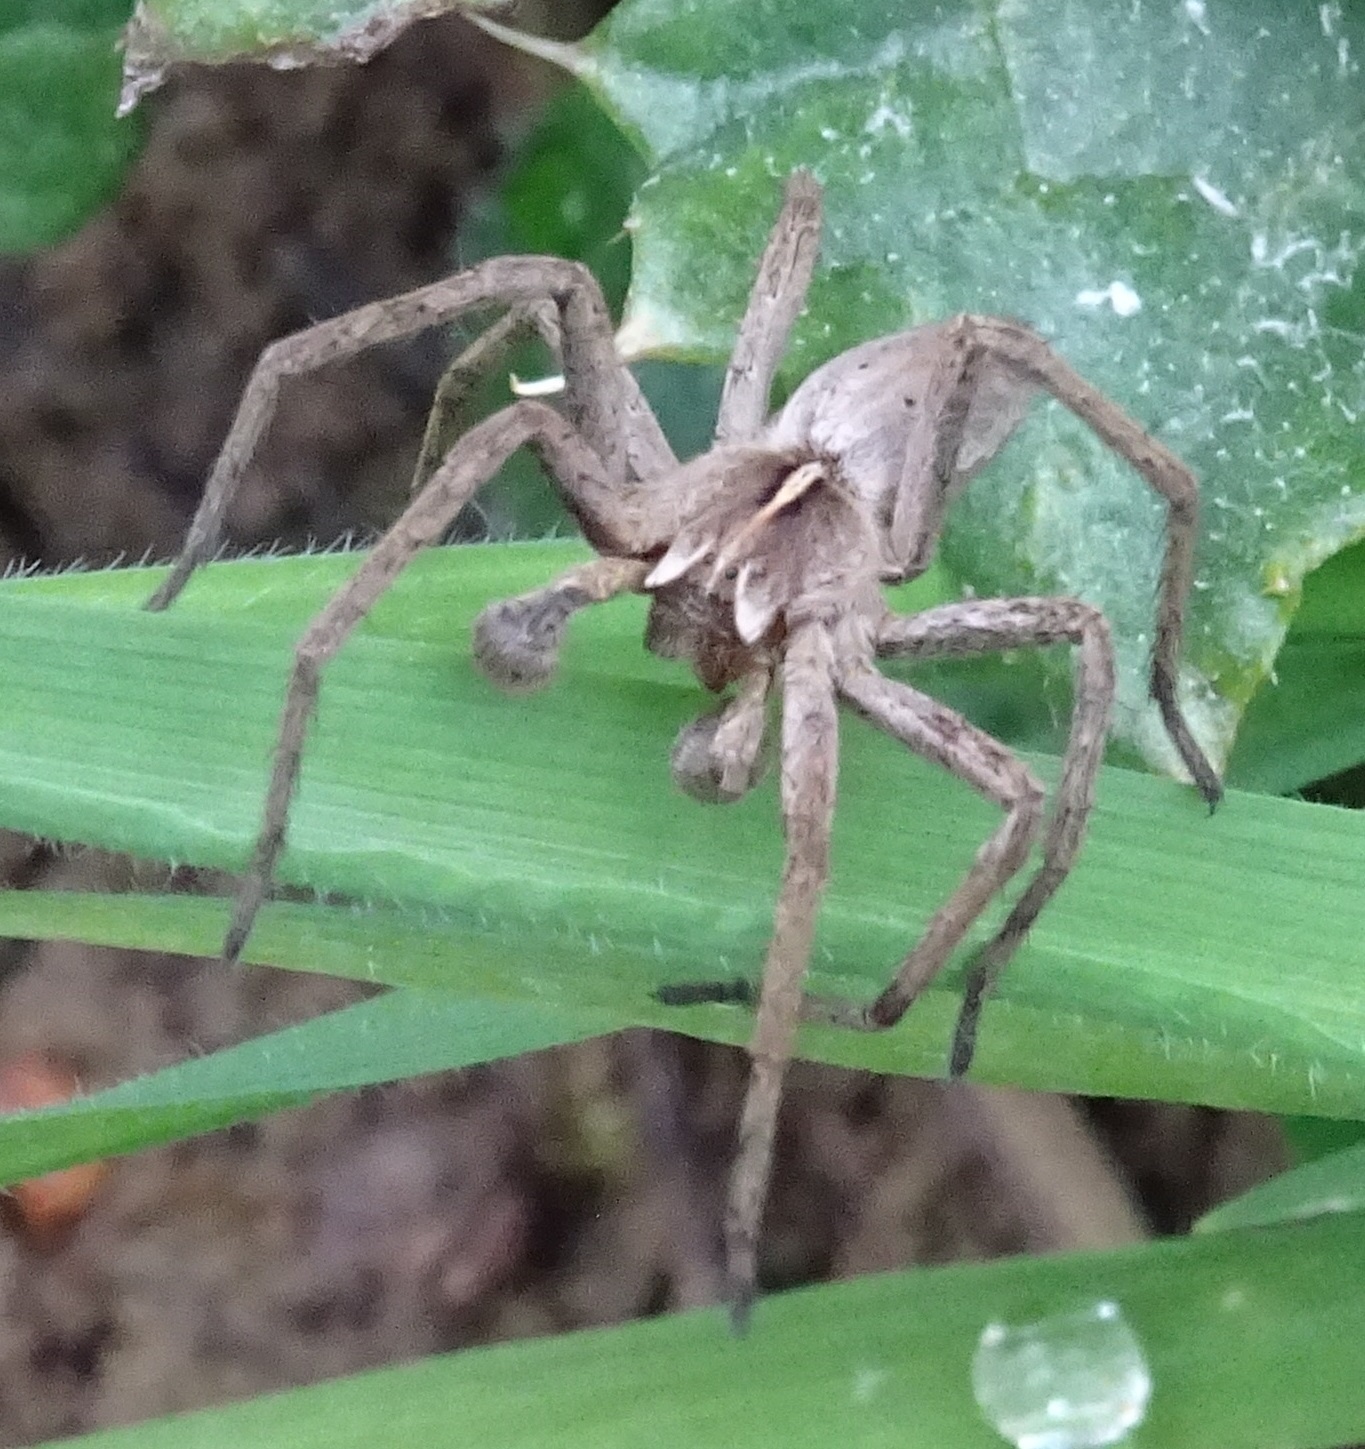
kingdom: Animalia
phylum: Arthropoda
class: Arachnida
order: Araneae
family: Pisauridae
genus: Pisaura
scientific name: Pisaura mirabilis
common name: Tent spider
